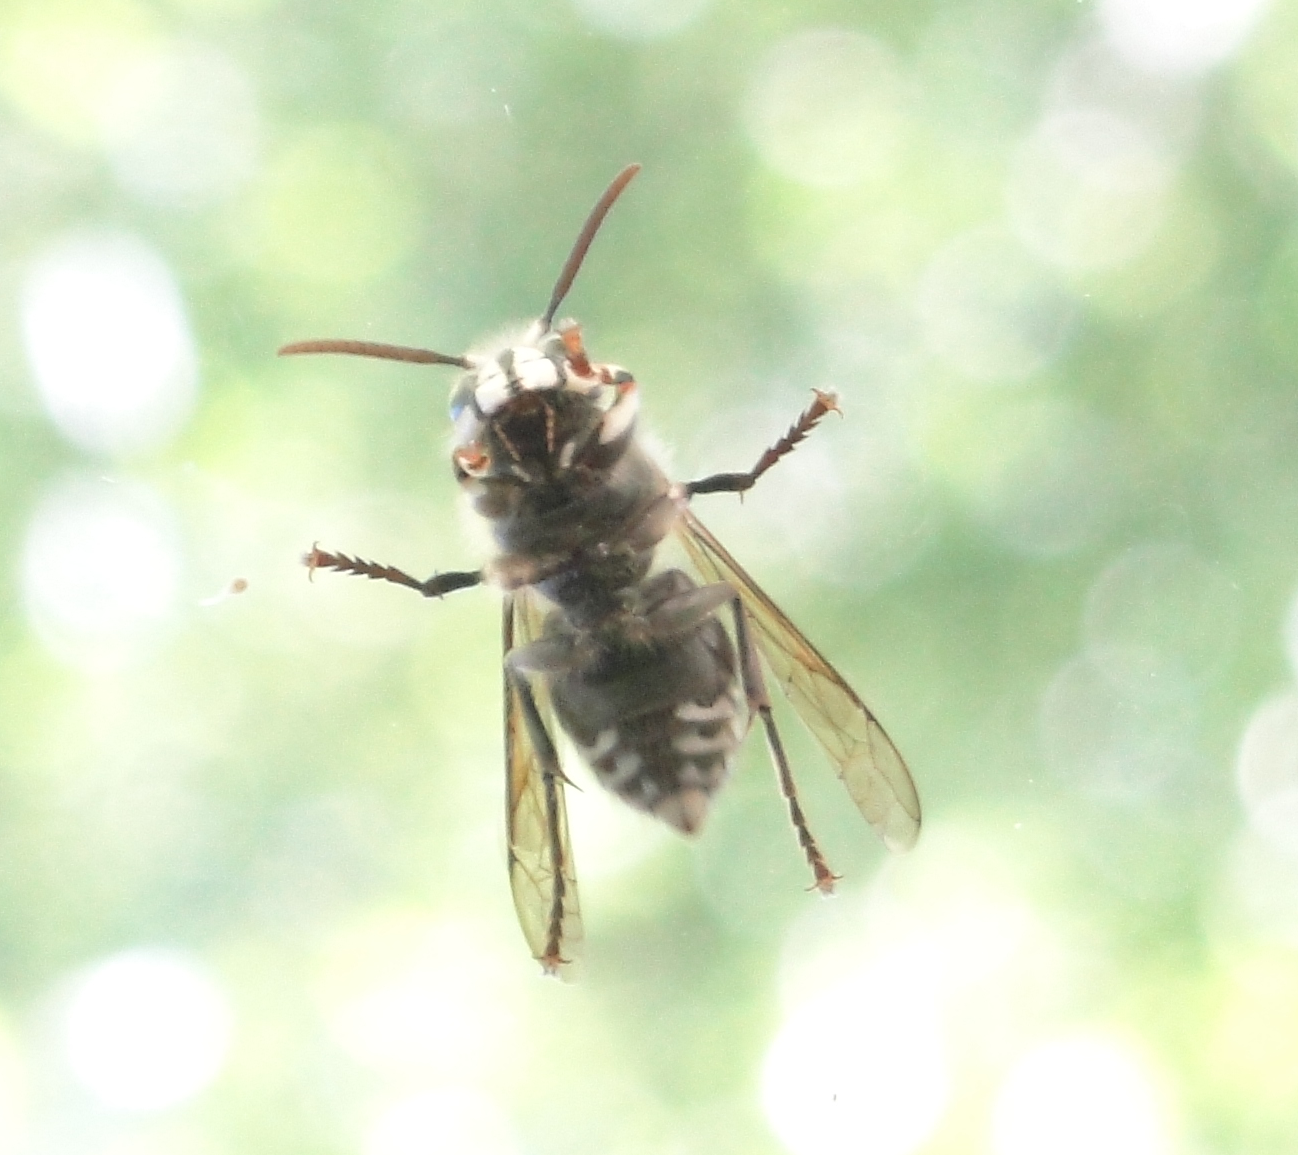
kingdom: Animalia
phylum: Arthropoda
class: Insecta
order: Hymenoptera
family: Vespidae
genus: Dolichovespula
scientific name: Dolichovespula maculata
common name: Bald-faced hornet
